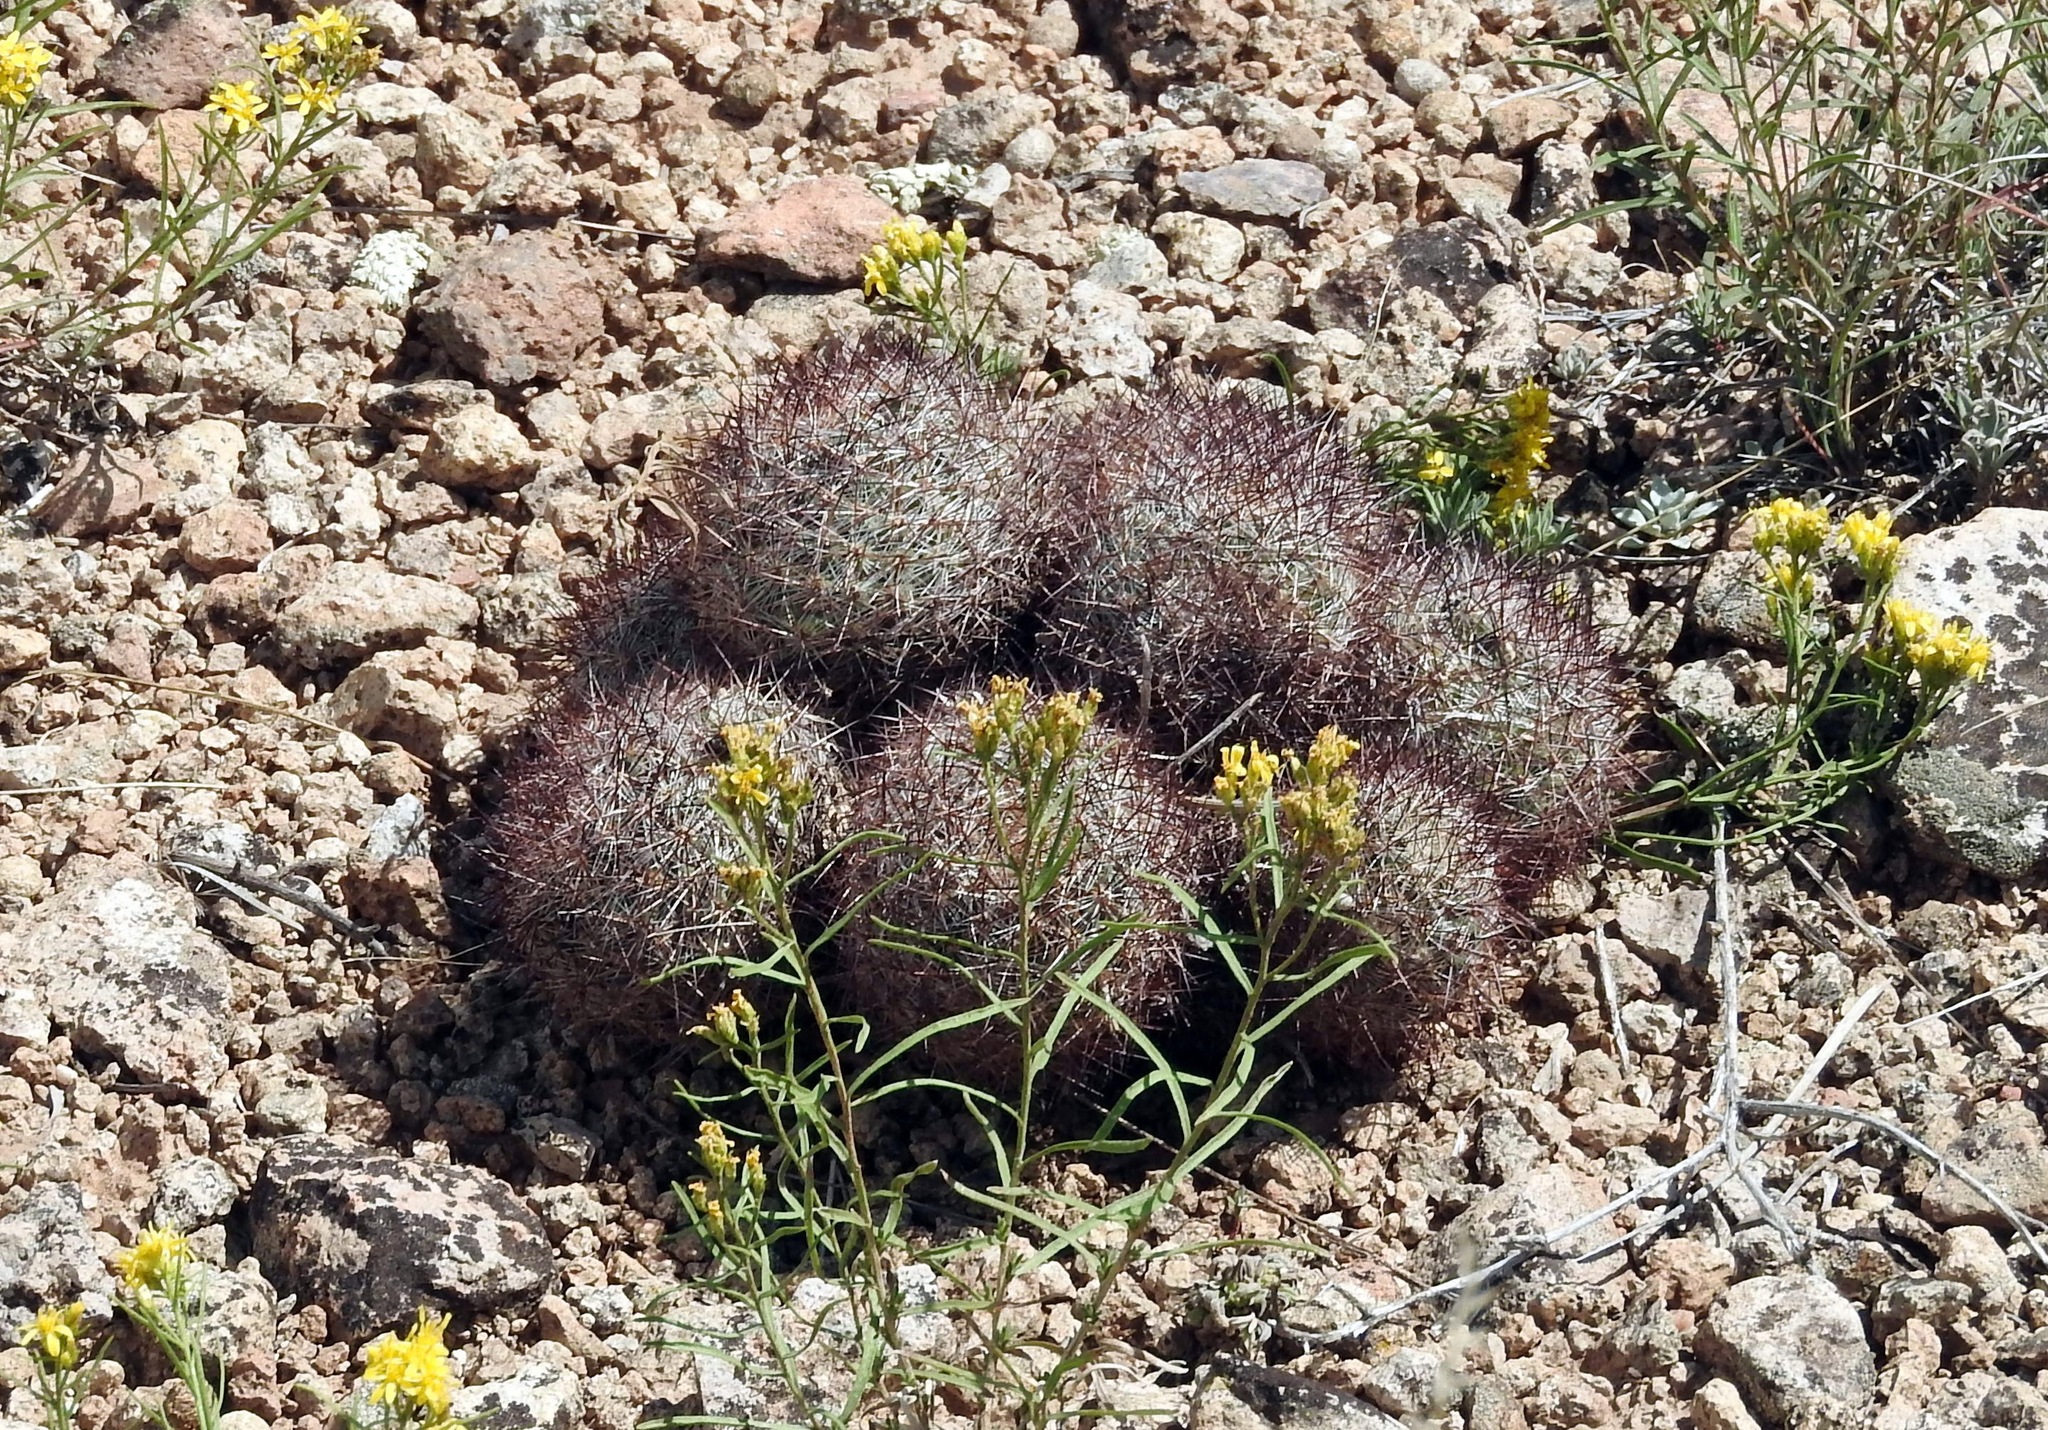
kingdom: Plantae
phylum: Tracheophyta
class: Magnoliopsida
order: Caryophyllales
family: Cactaceae
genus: Pediocactus
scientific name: Pediocactus simpsonii
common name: Simpson's hedgehog cactus
